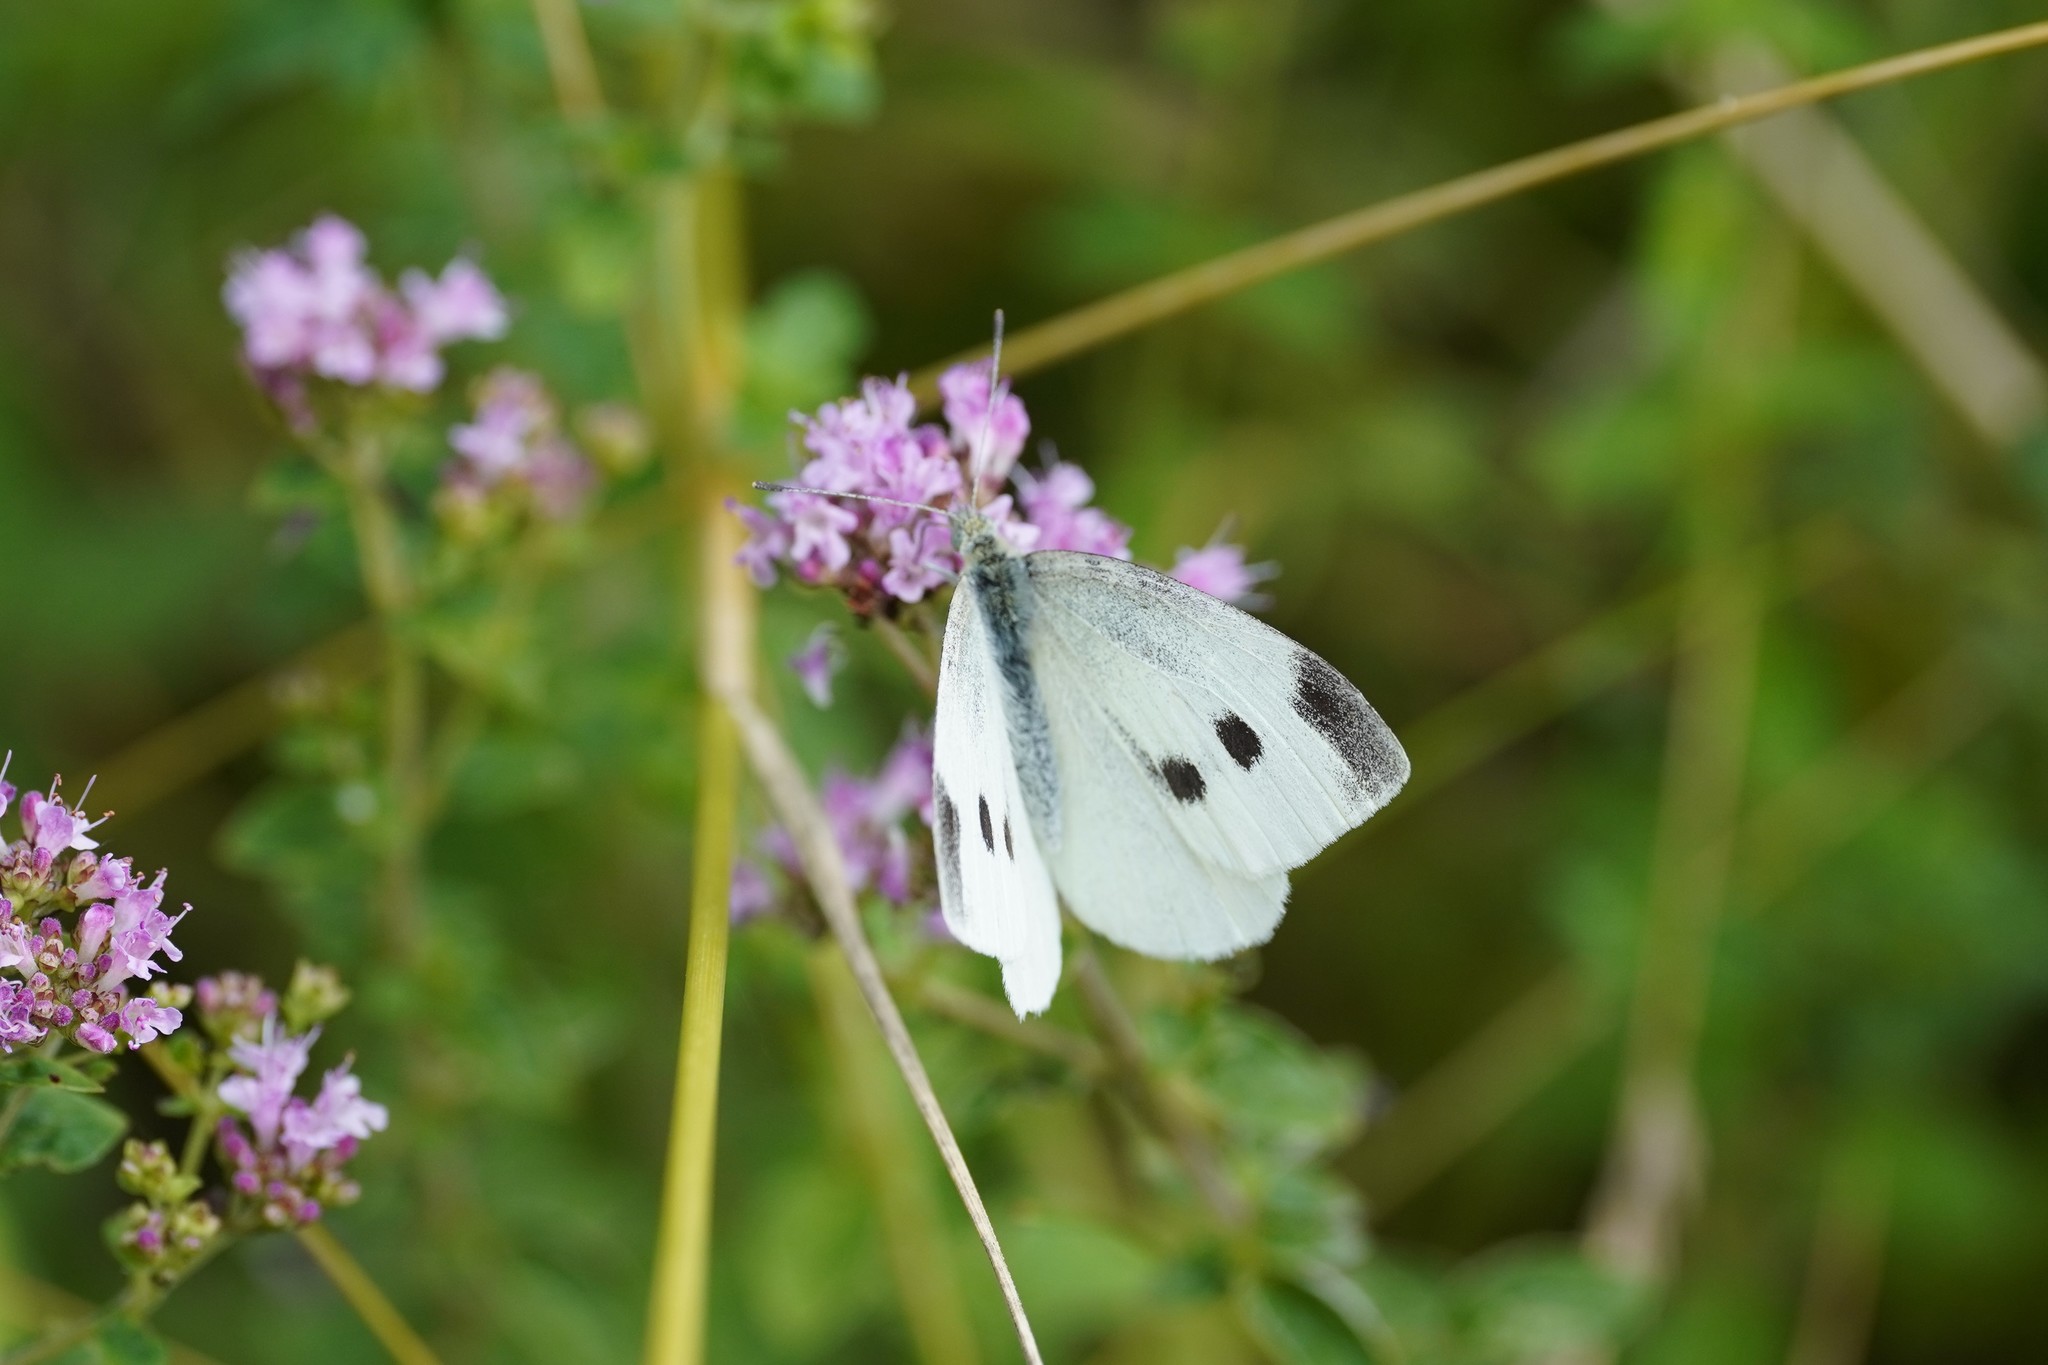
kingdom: Animalia
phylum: Arthropoda
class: Insecta
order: Lepidoptera
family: Pieridae
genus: Pieris
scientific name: Pieris rapae
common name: Small white
